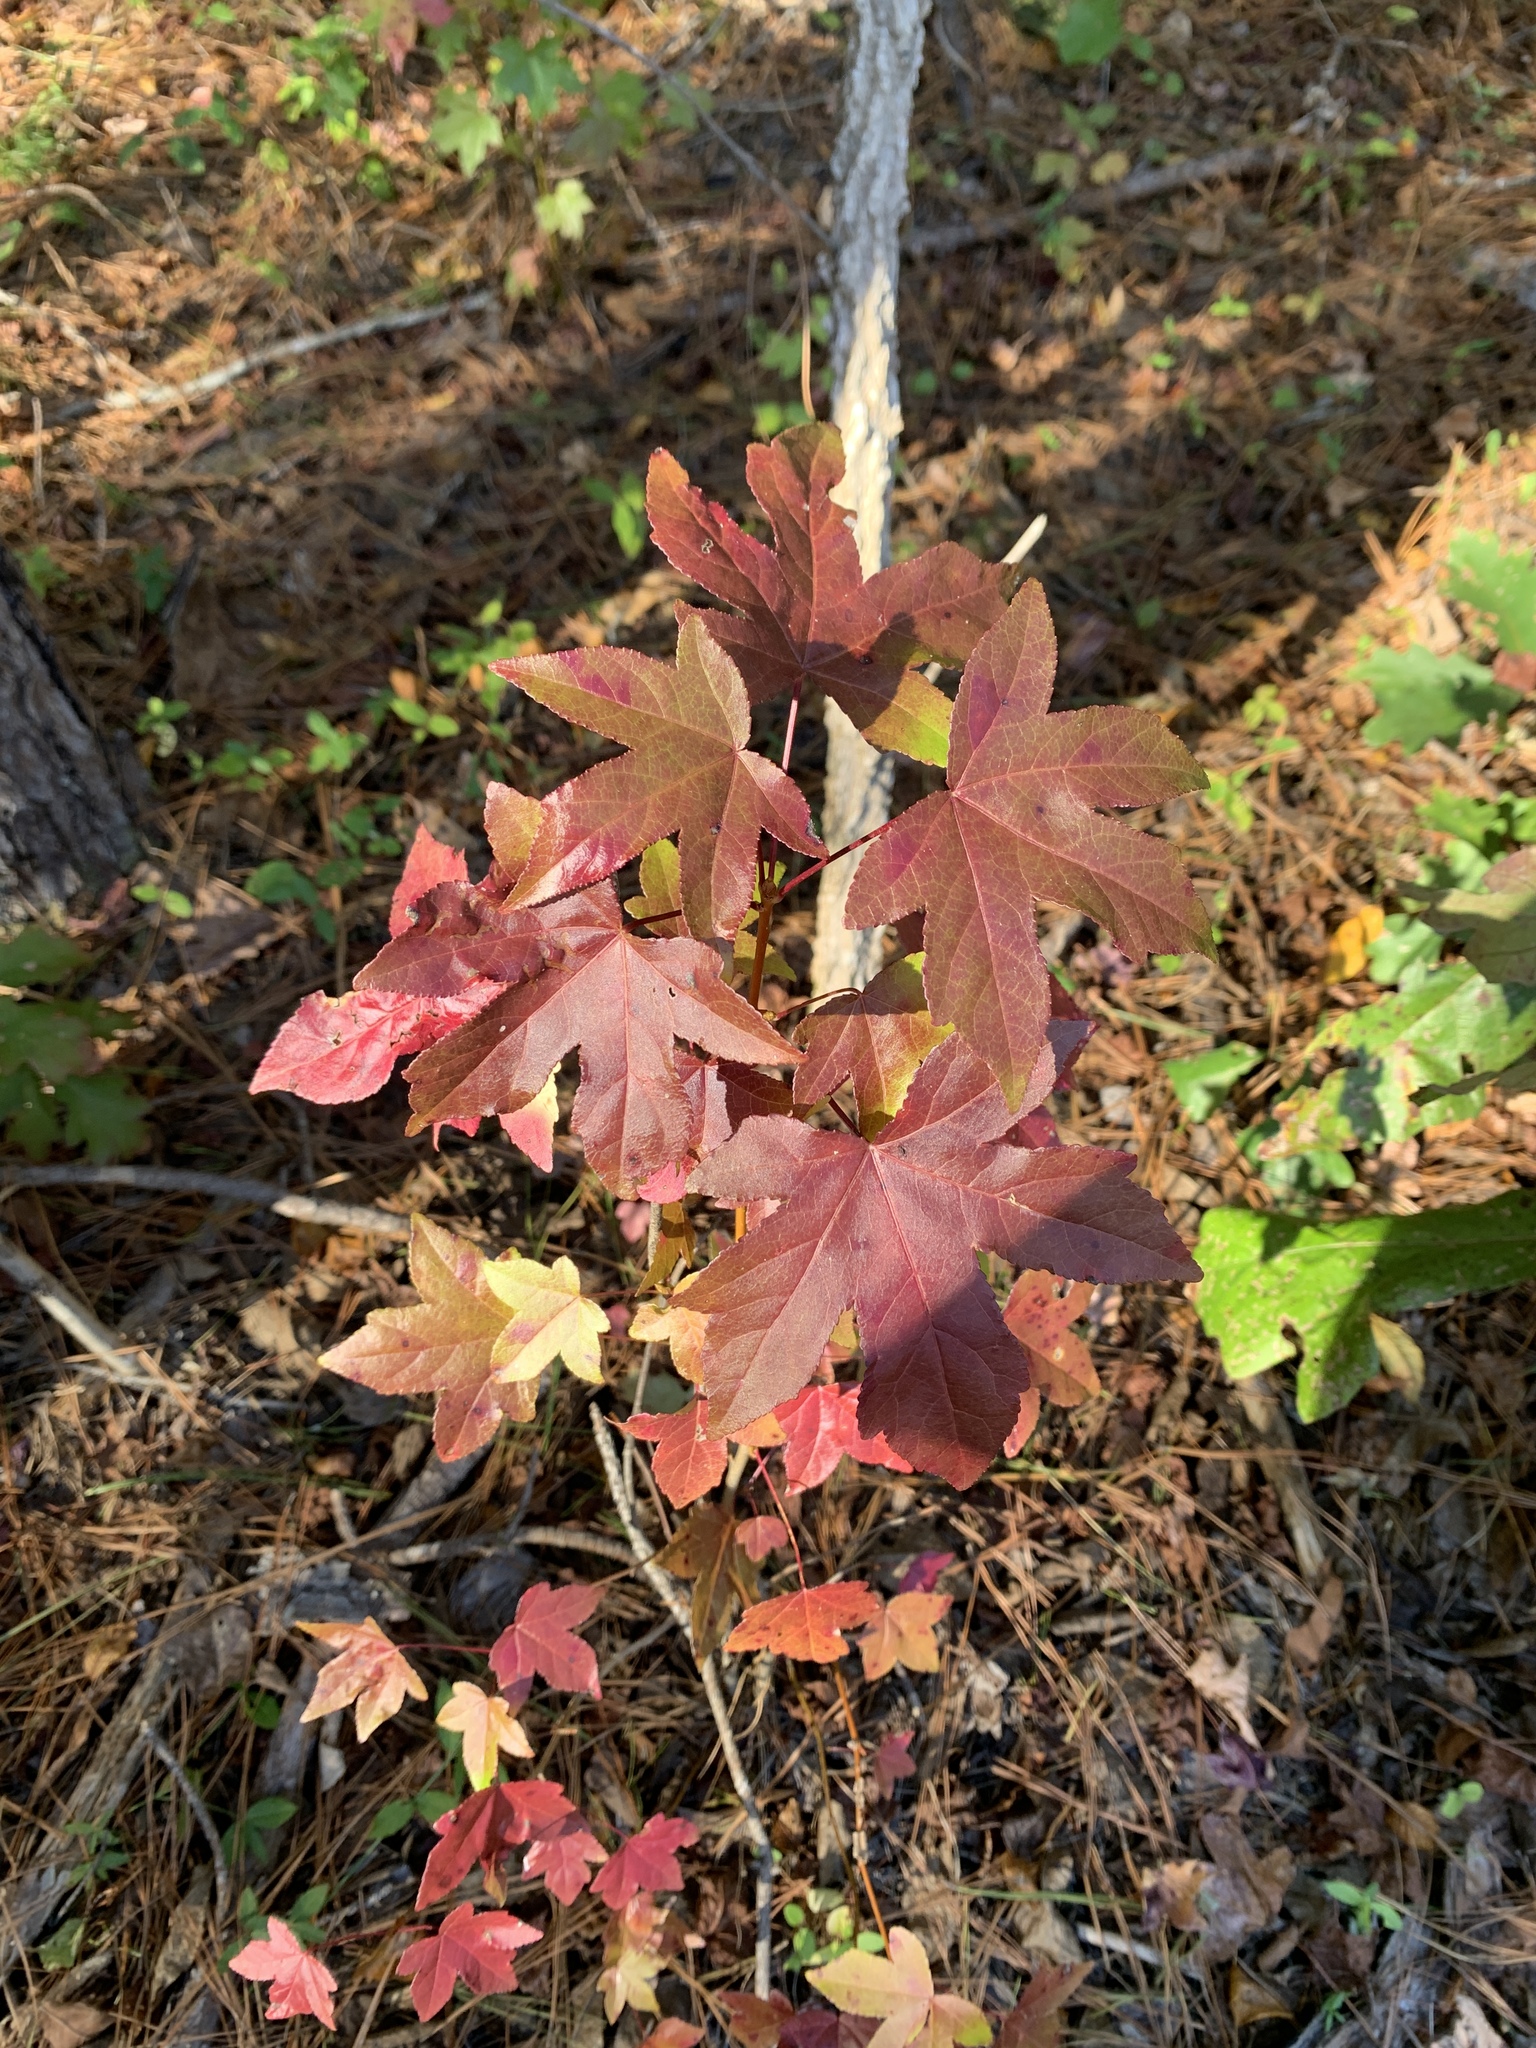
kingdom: Plantae
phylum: Tracheophyta
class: Magnoliopsida
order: Saxifragales
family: Altingiaceae
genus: Liquidambar
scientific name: Liquidambar styraciflua
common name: Sweet gum
